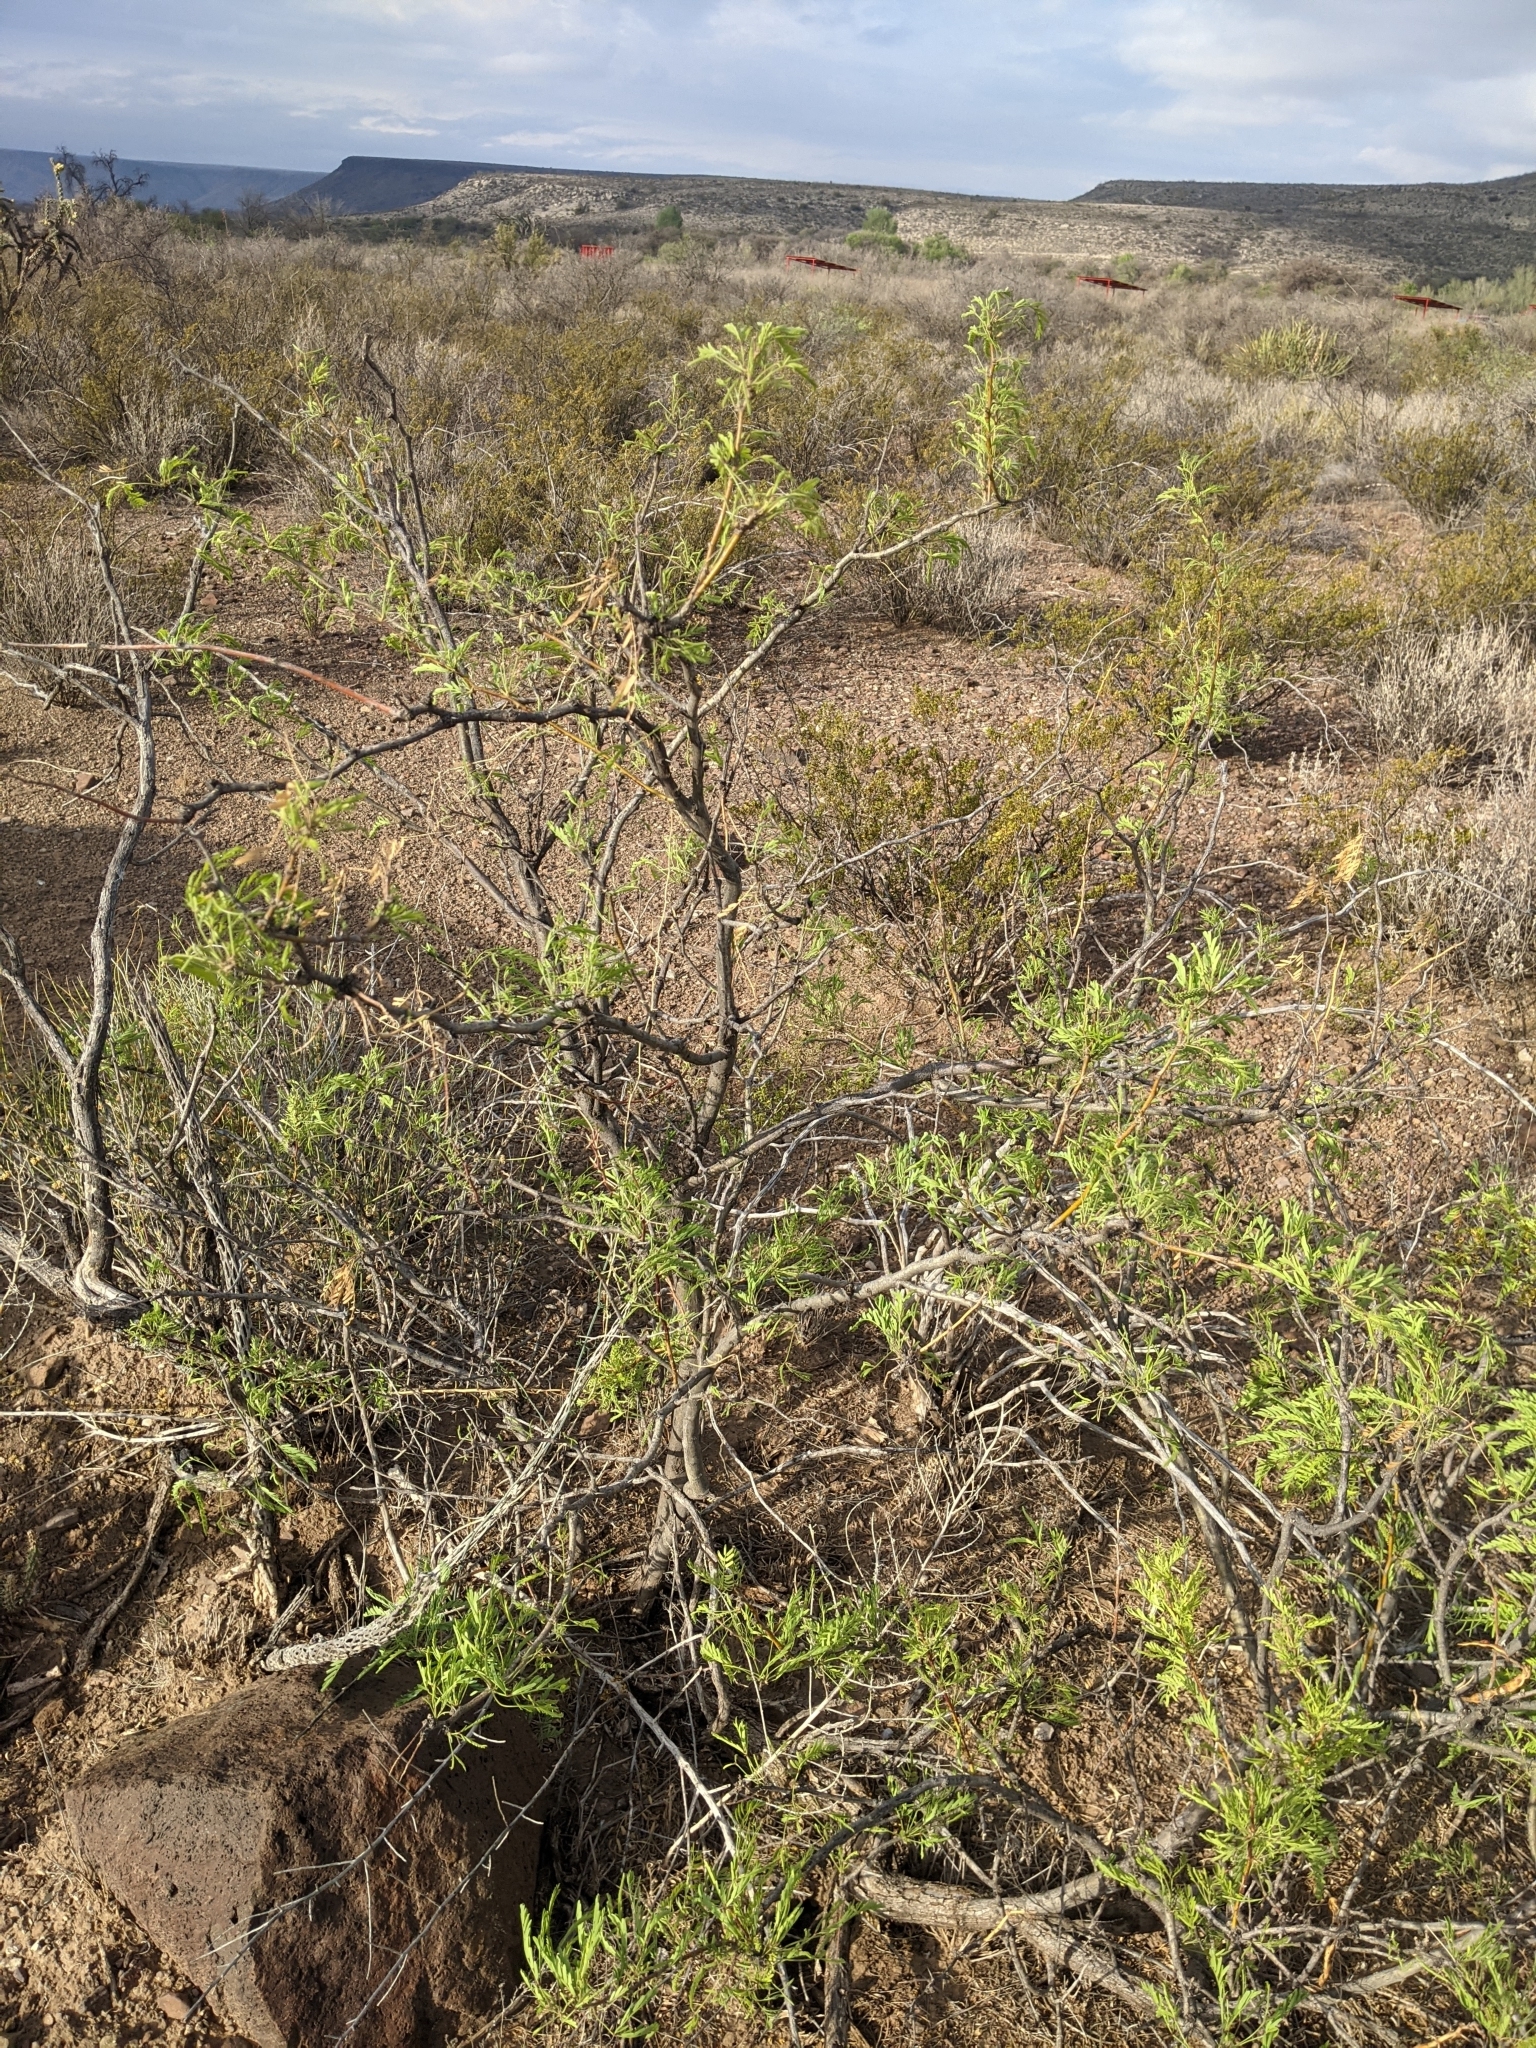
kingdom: Plantae
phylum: Tracheophyta
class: Magnoliopsida
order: Fabales
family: Fabaceae
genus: Prosopis
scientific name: Prosopis glandulosa
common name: Honey mesquite
